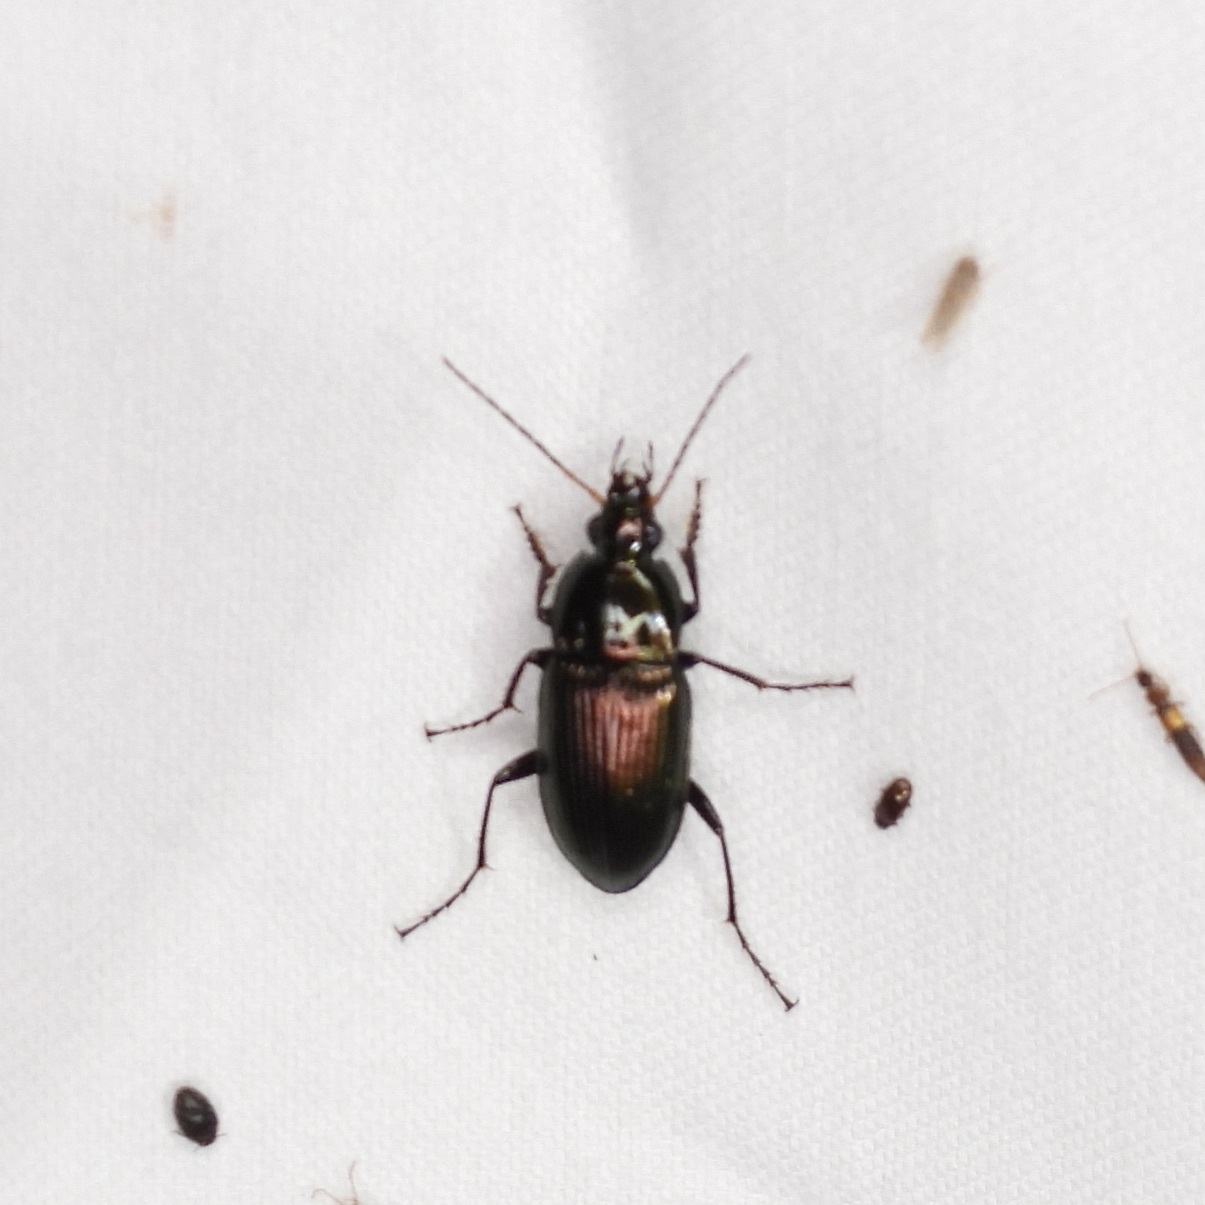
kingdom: Animalia
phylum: Arthropoda
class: Insecta
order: Coleoptera
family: Carabidae
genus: Poecilus
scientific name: Poecilus chalcites
